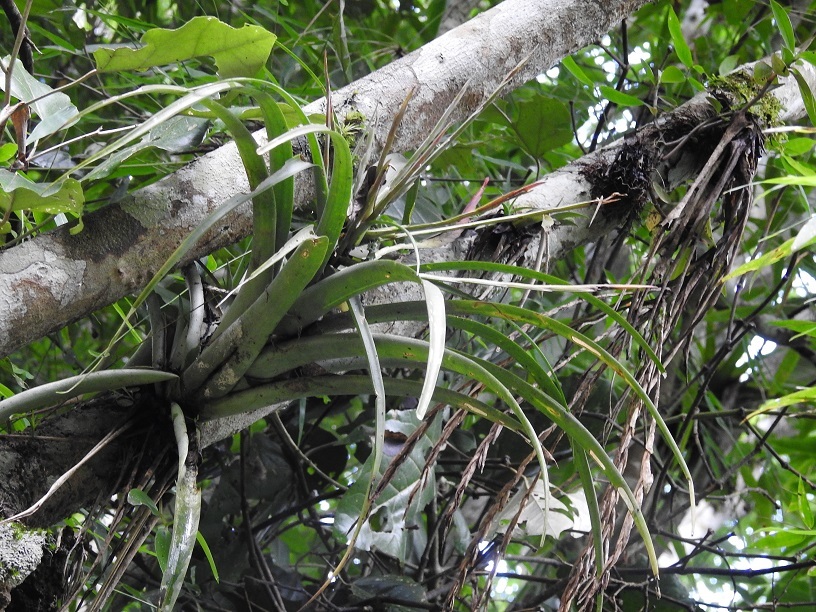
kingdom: Plantae
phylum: Tracheophyta
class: Liliopsida
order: Poales
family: Bromeliaceae
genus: Tillandsia
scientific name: Tillandsia flabellata
